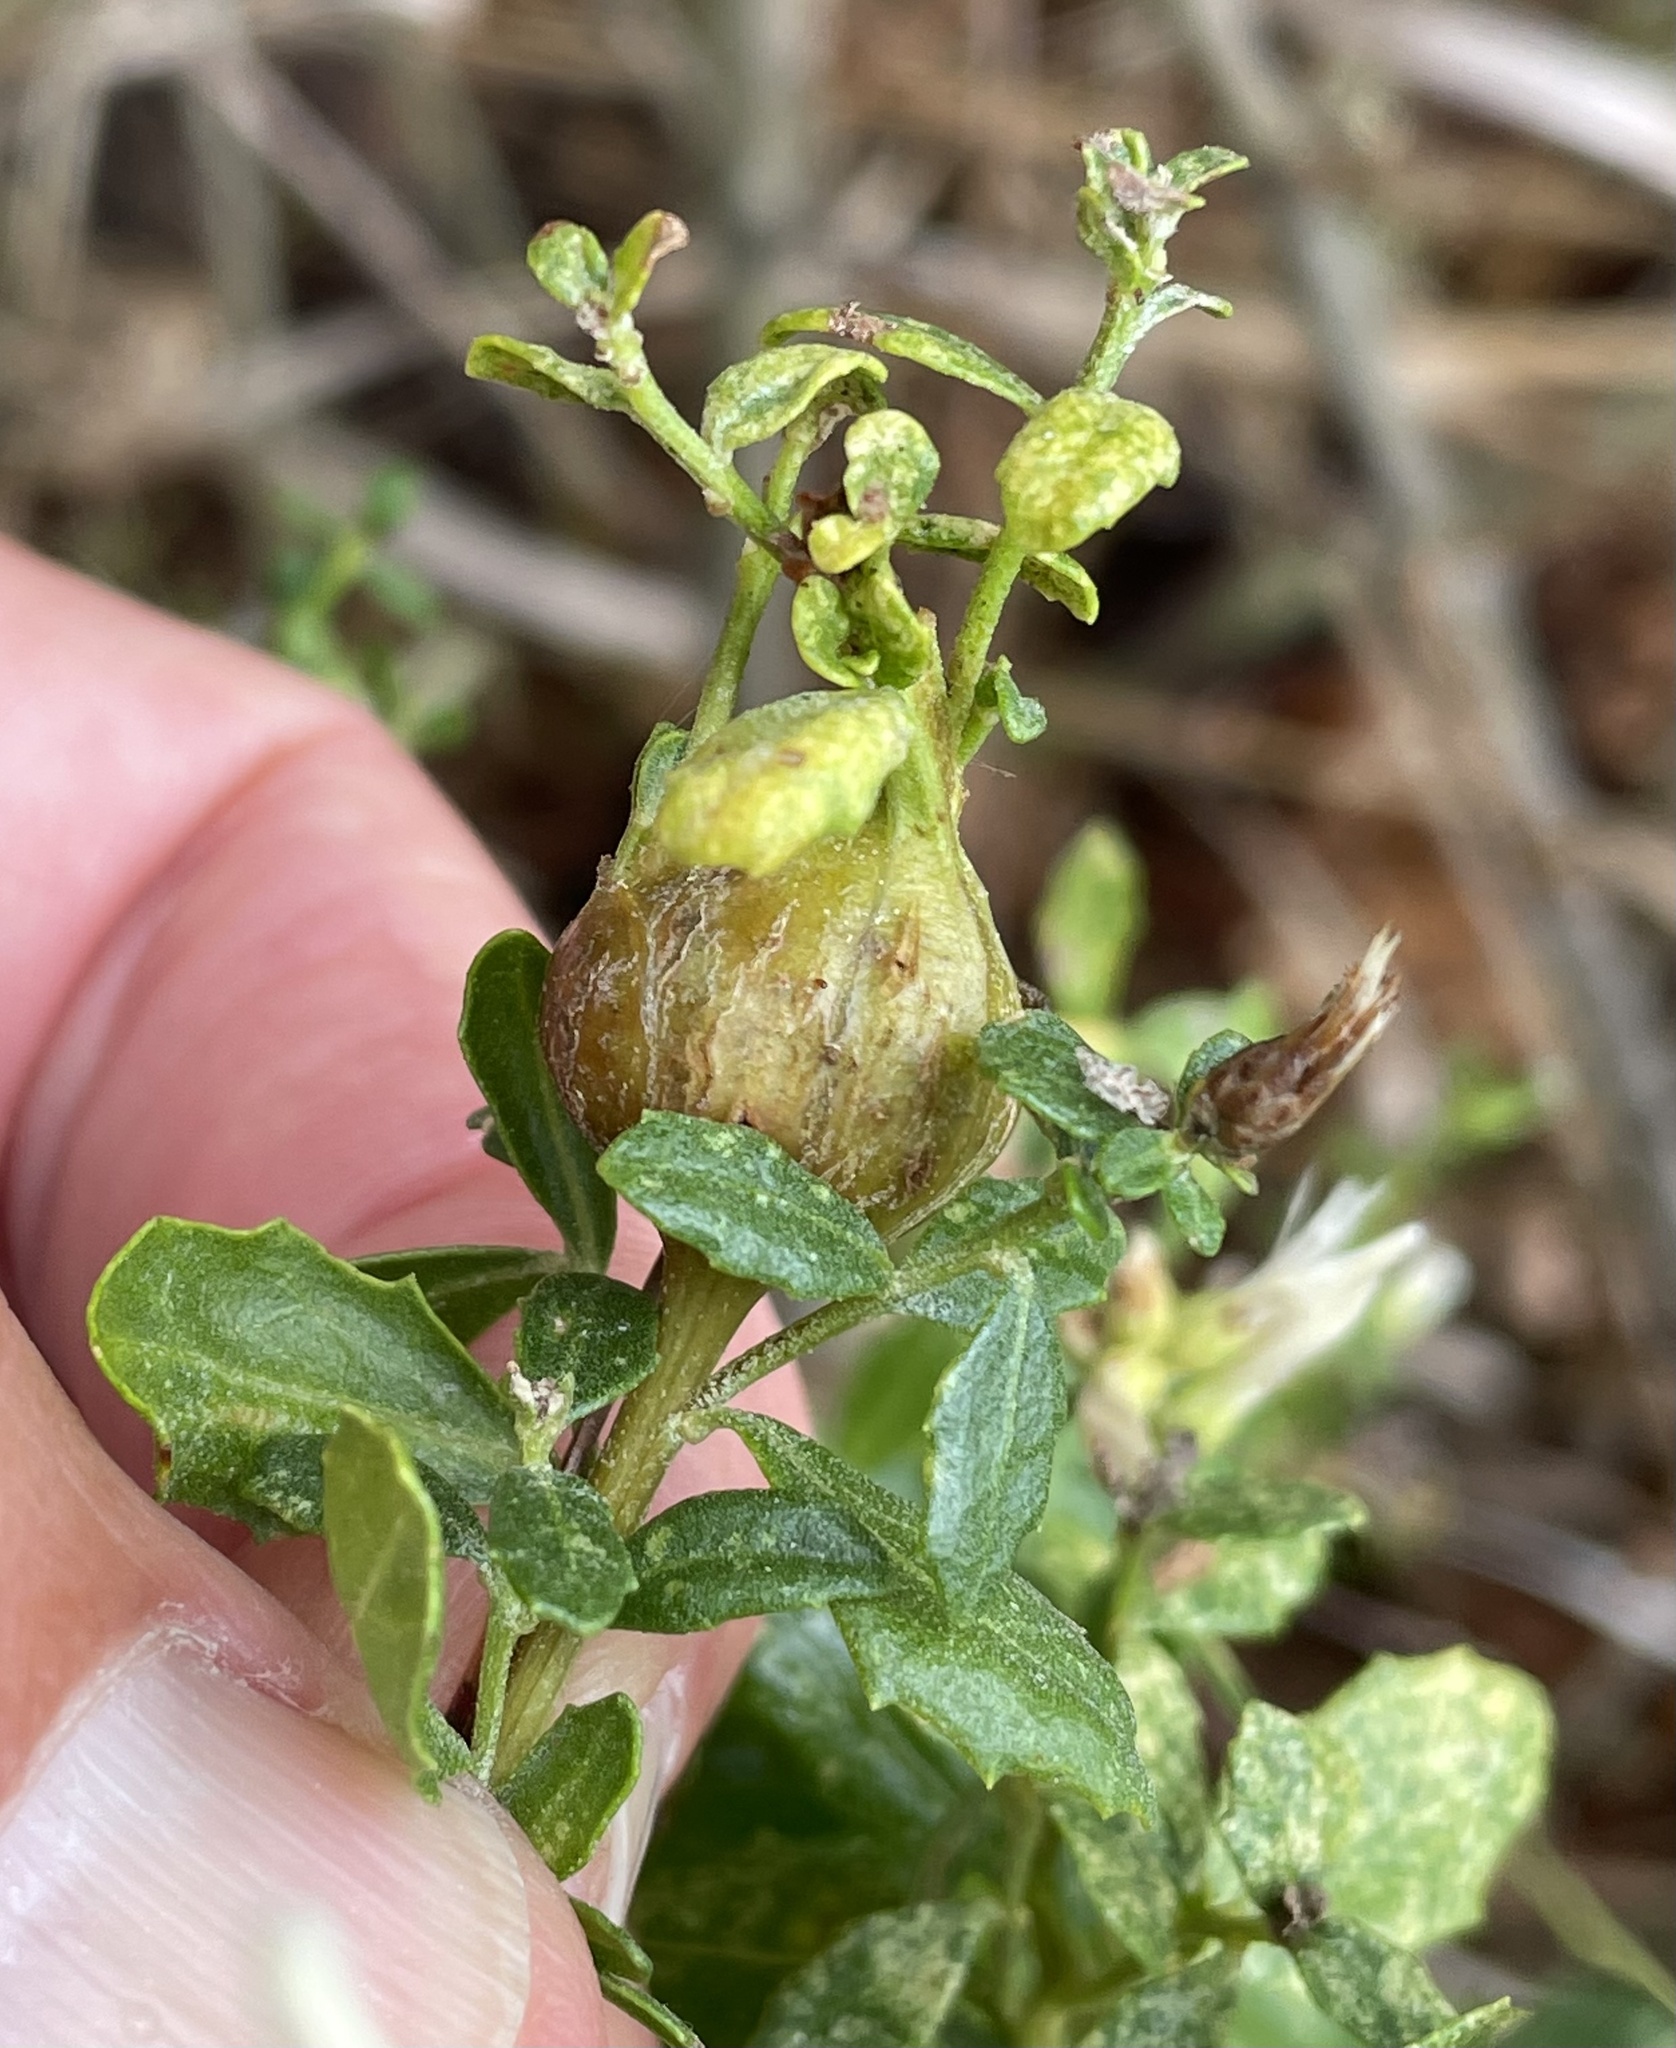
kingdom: Animalia
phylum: Arthropoda
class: Insecta
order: Lepidoptera
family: Gelechiidae
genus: Gnorimoschema
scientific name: Gnorimoschema baccharisella
